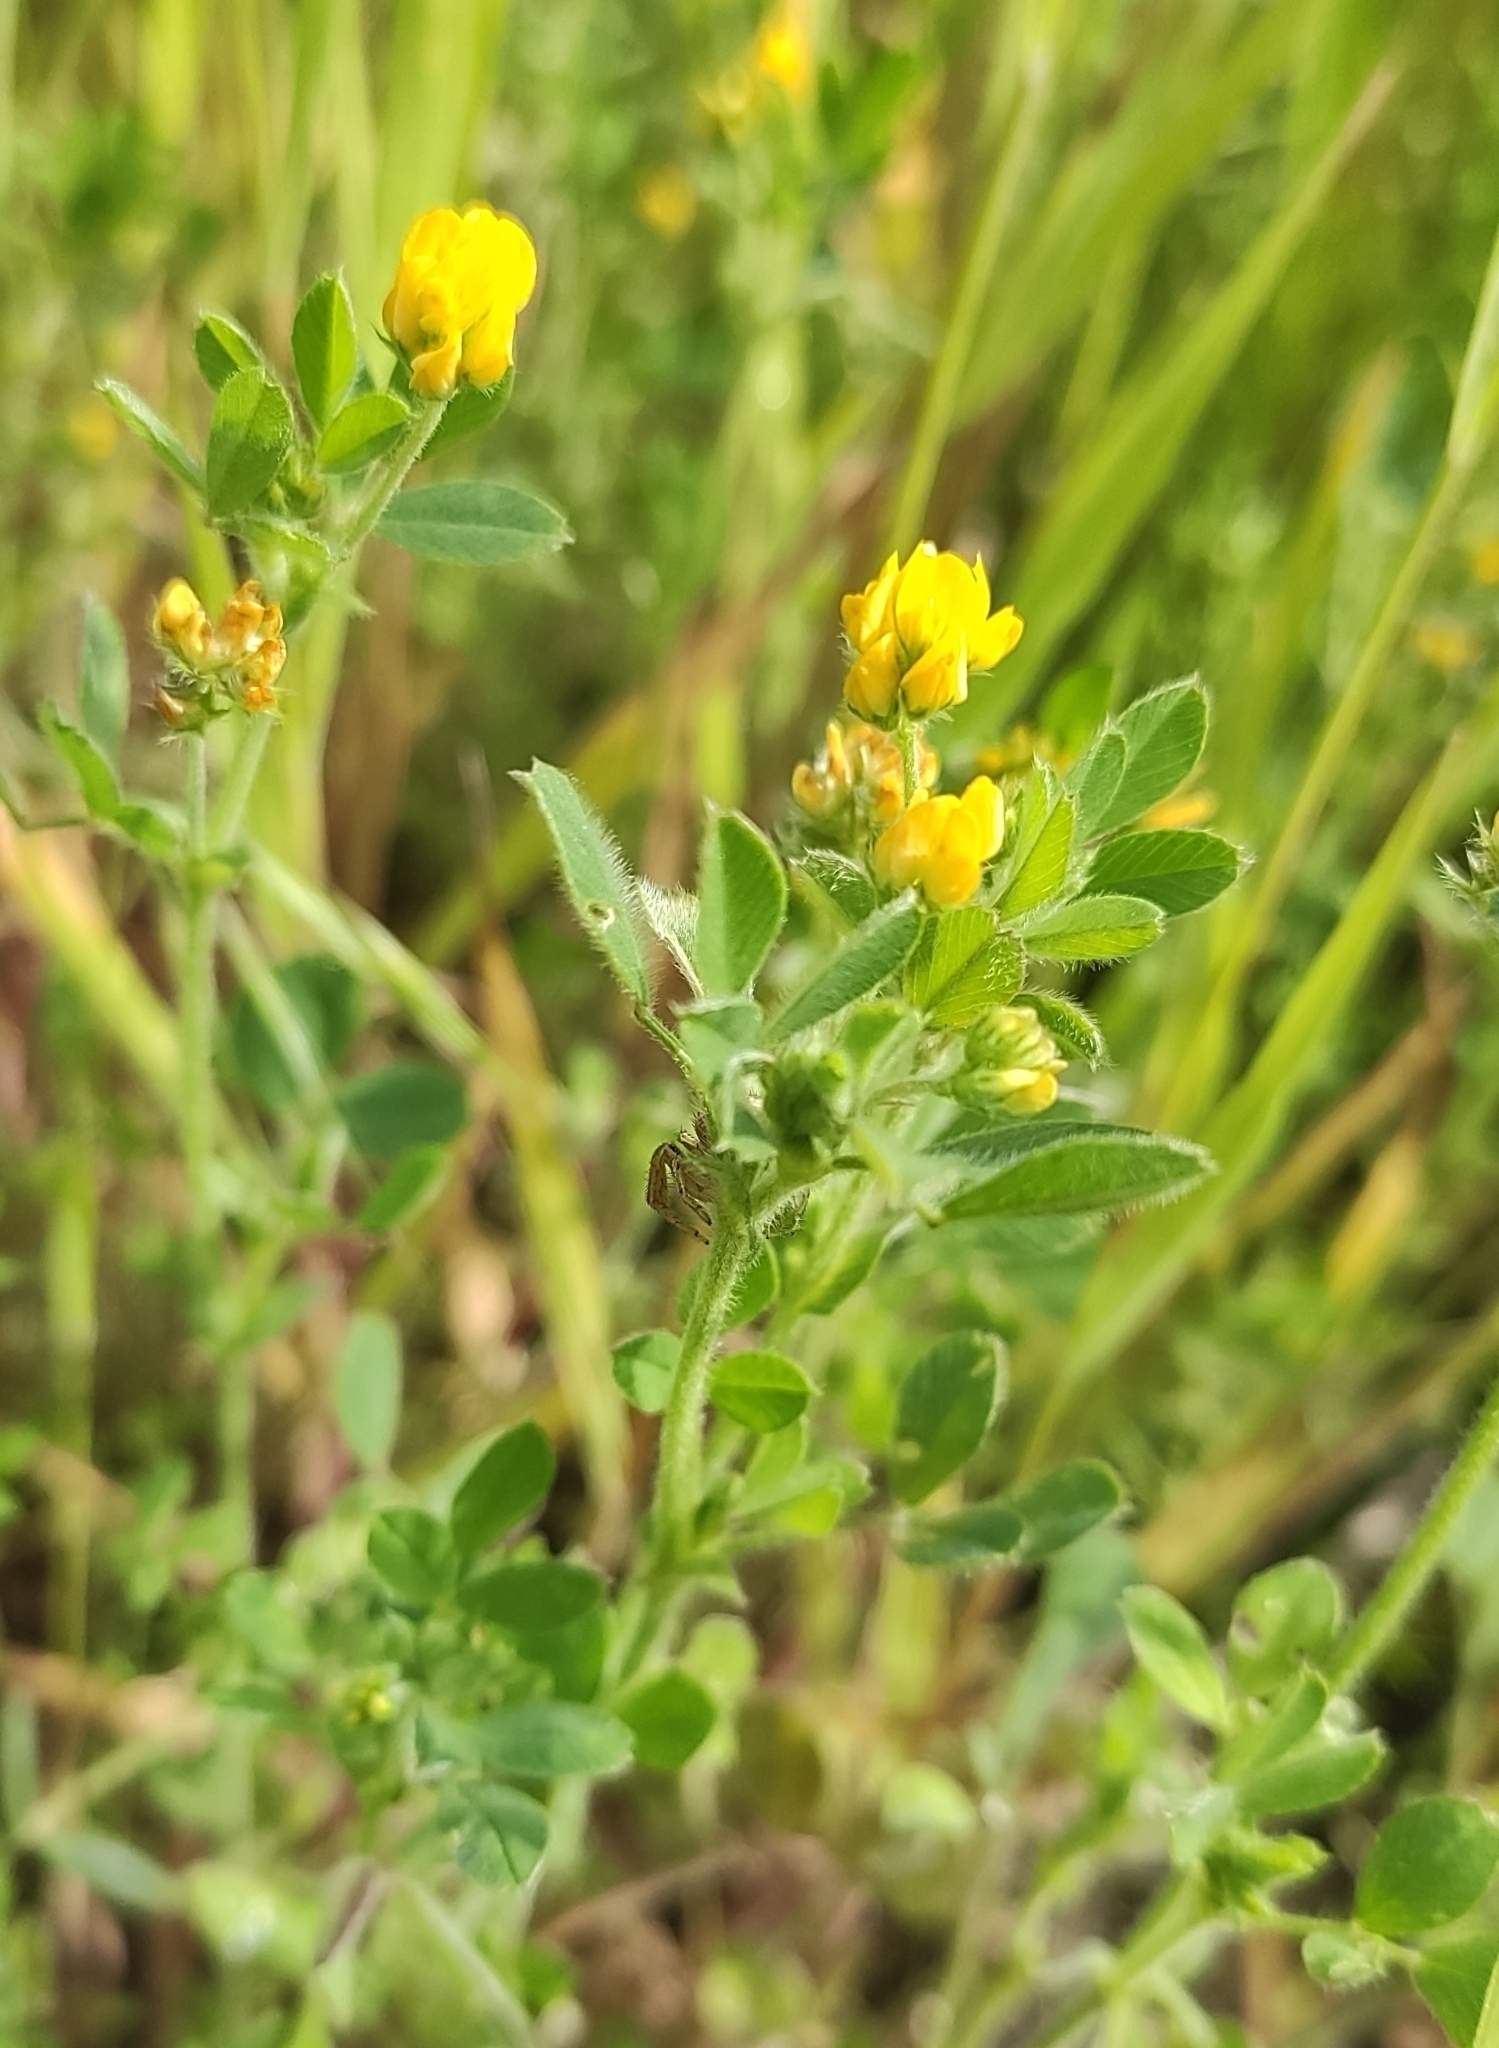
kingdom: Plantae
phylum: Tracheophyta
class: Magnoliopsida
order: Fabales
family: Fabaceae
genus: Medicago
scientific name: Medicago minima
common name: Little bur-clover
